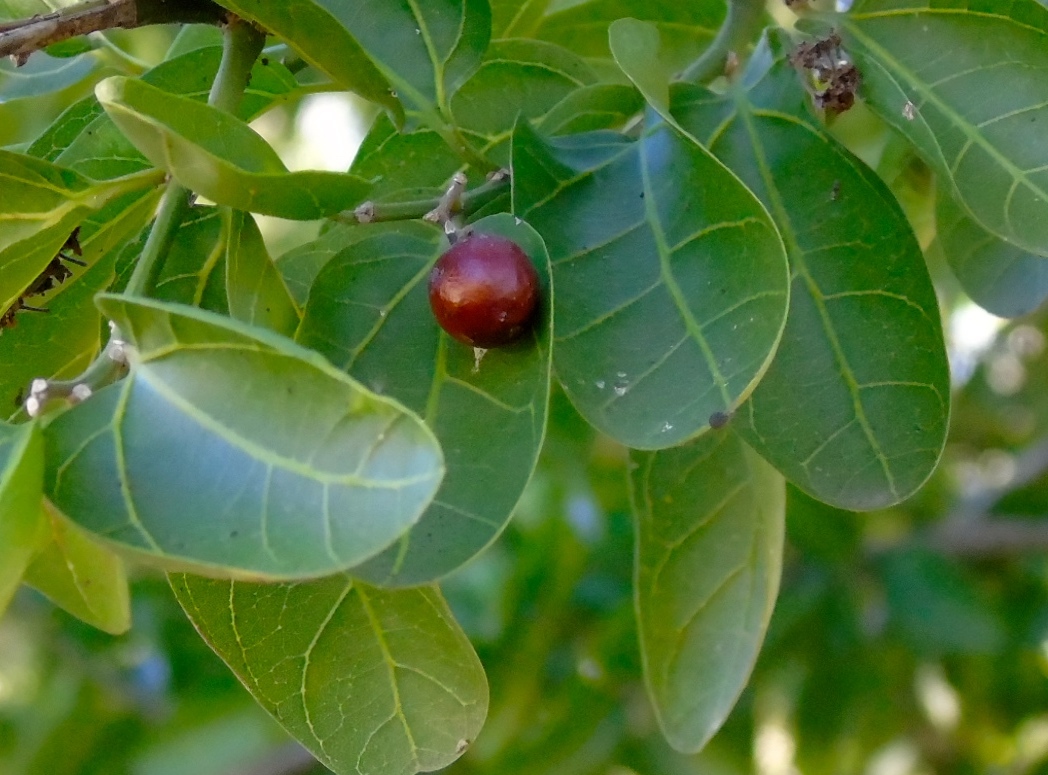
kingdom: Plantae
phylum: Tracheophyta
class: Magnoliopsida
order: Rosales
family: Rhamnaceae
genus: Sarcomphalus
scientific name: Sarcomphalus amole
